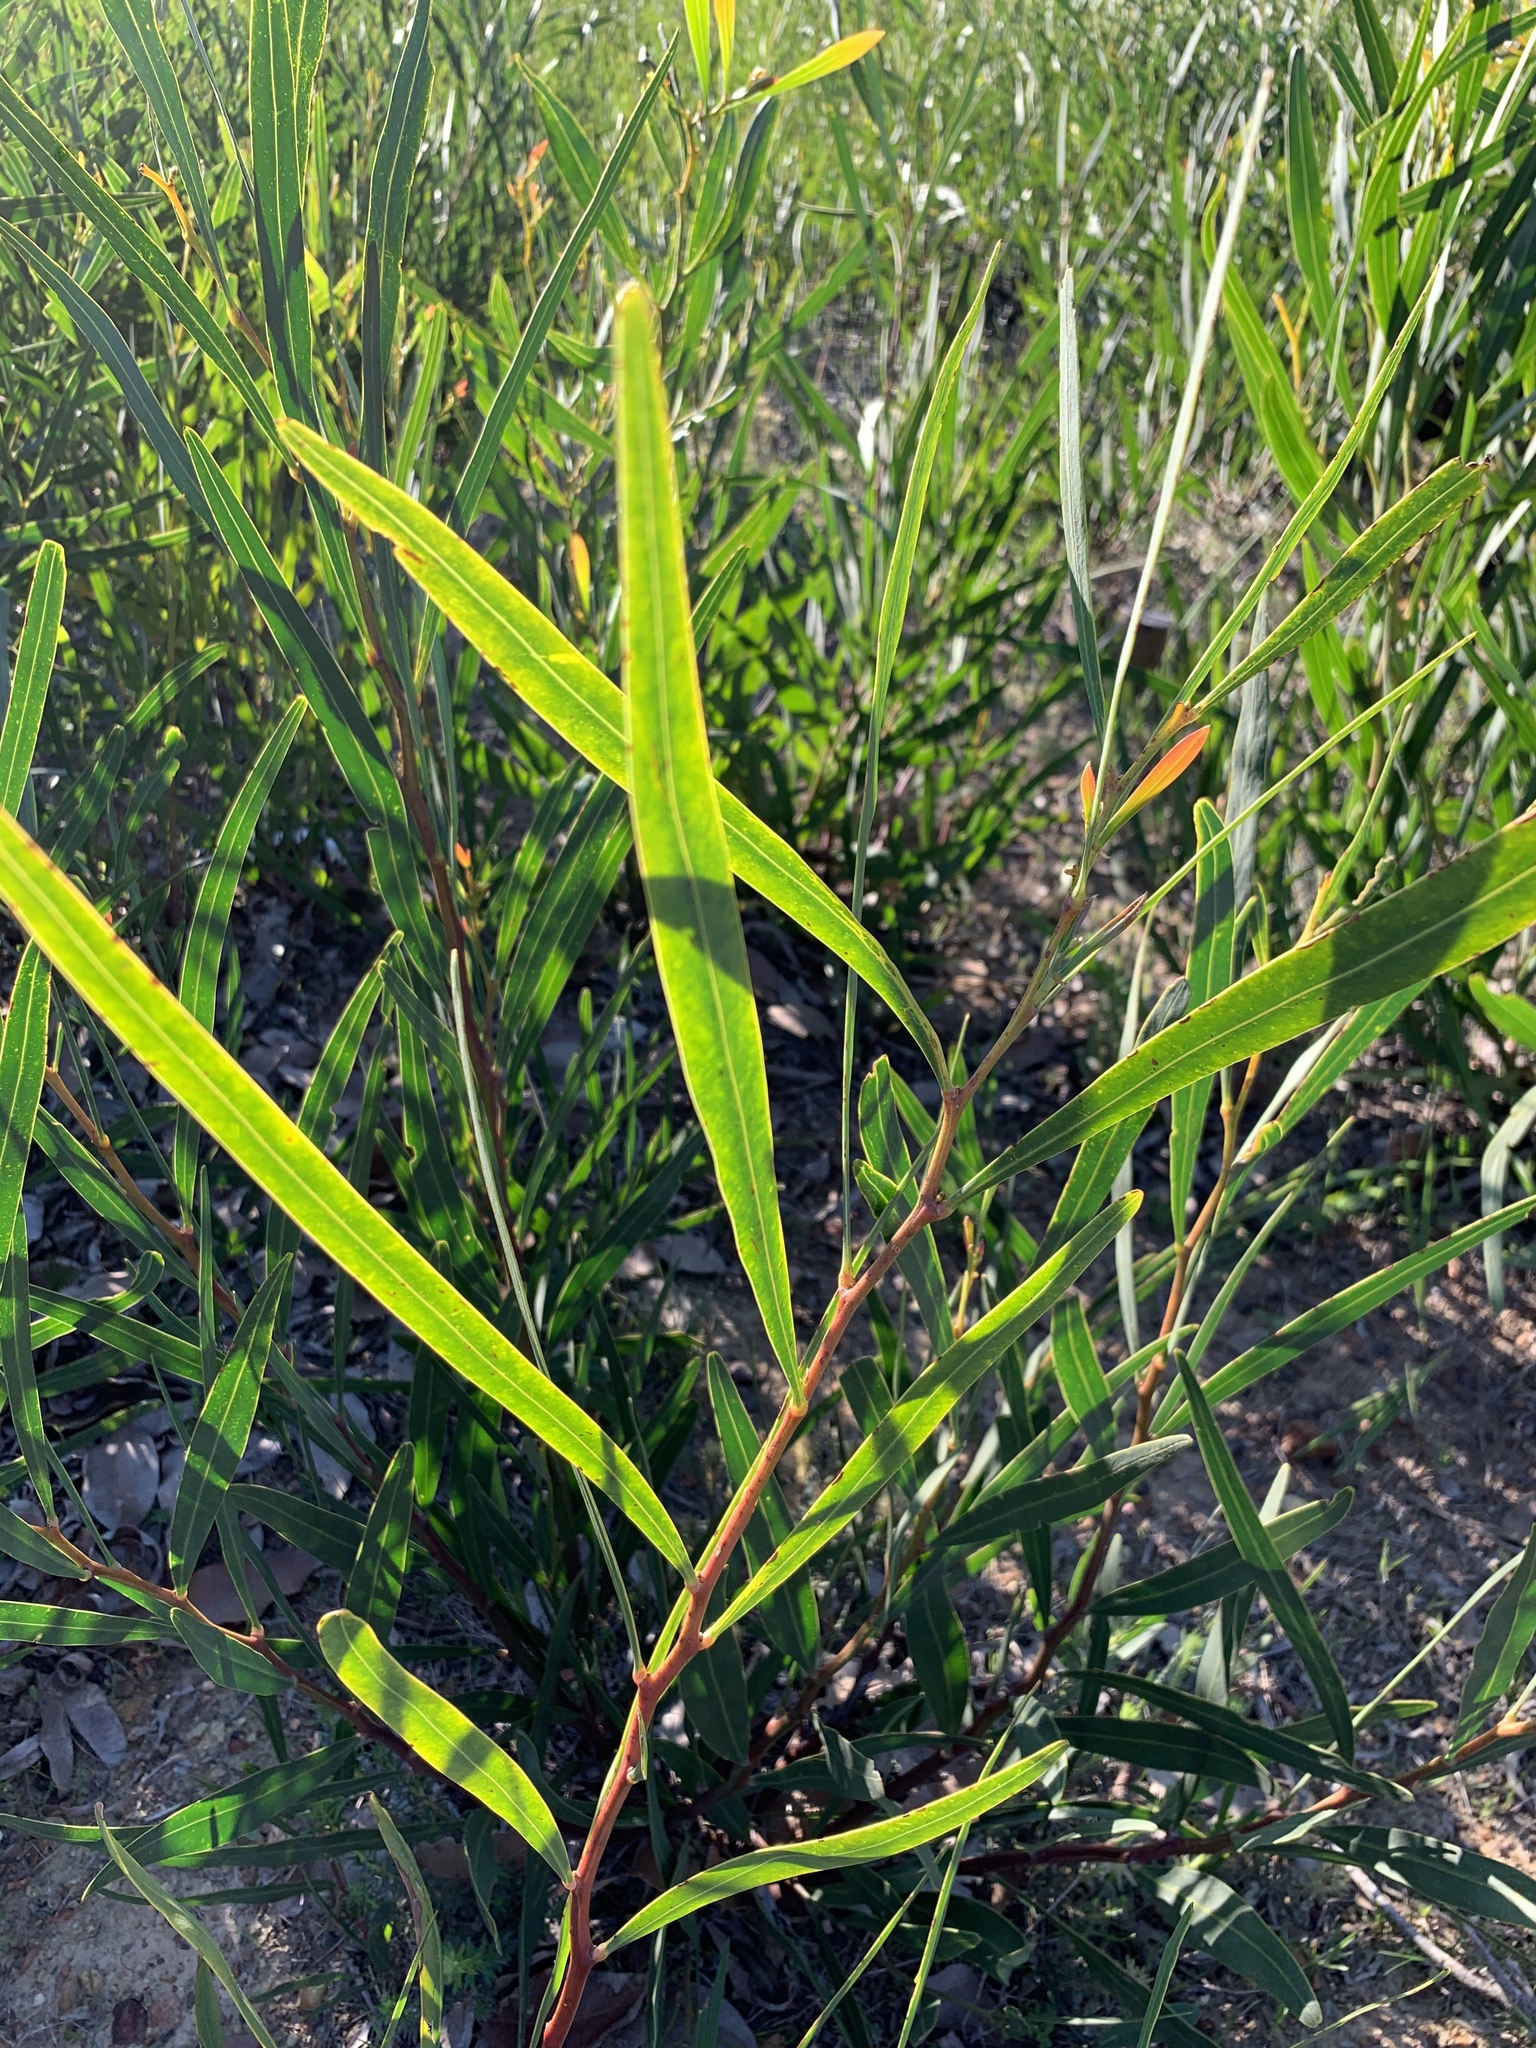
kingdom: Plantae
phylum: Tracheophyta
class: Magnoliopsida
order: Fabales
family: Fabaceae
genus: Acacia
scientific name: Acacia saligna
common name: Orange wattle
